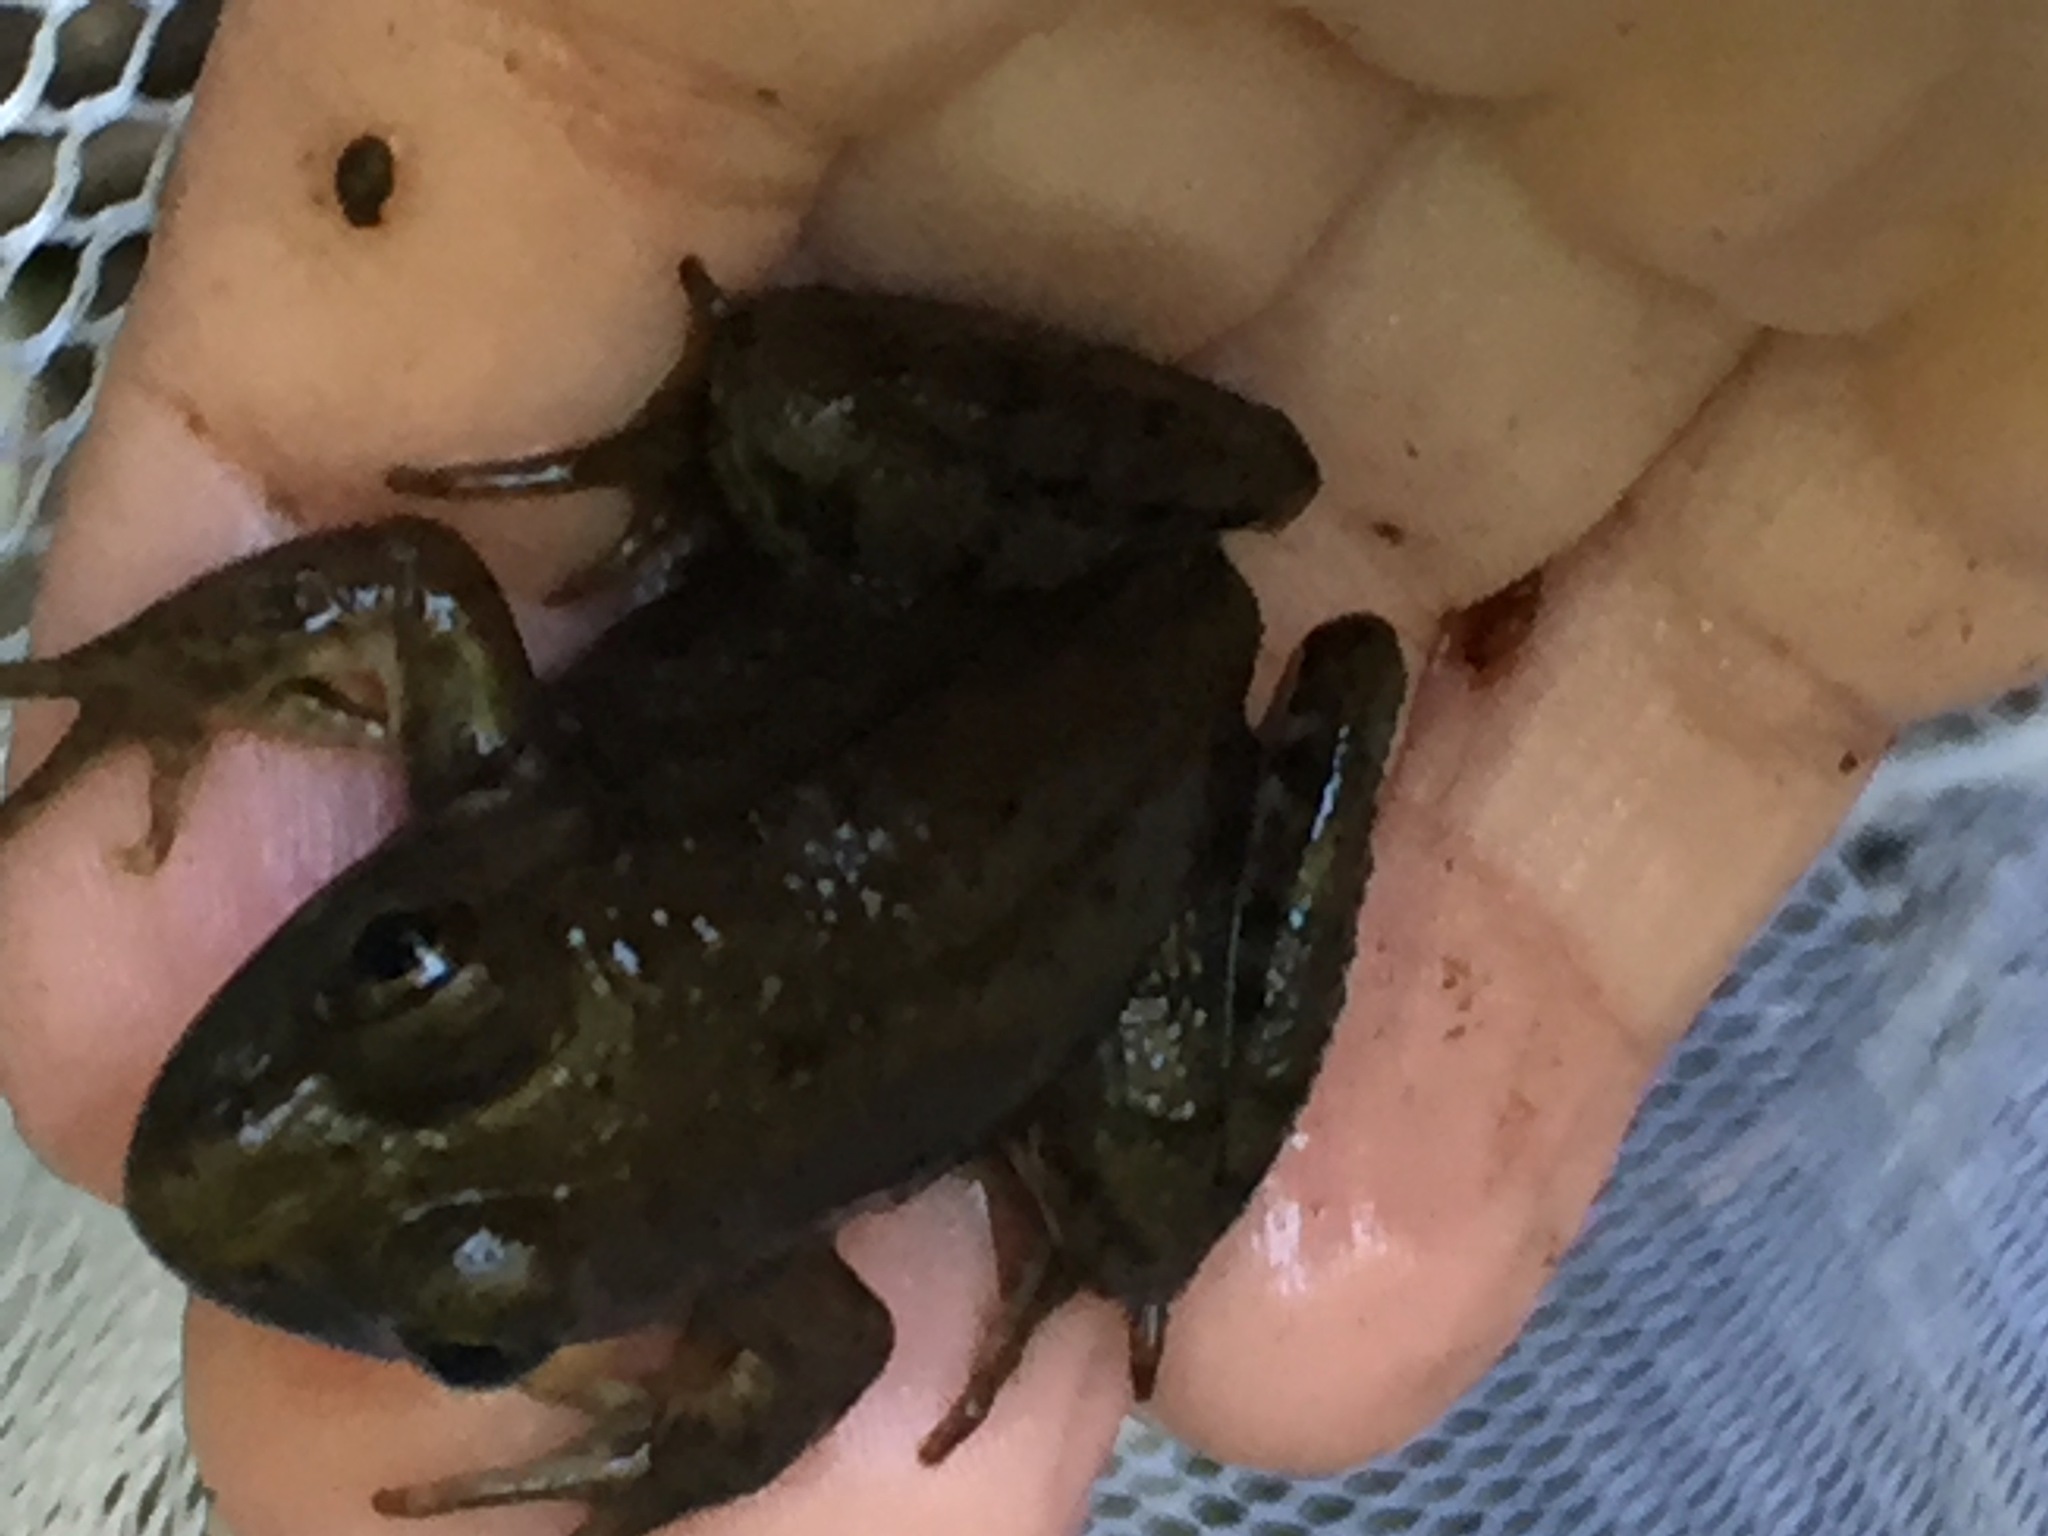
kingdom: Animalia
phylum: Chordata
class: Amphibia
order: Anura
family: Ranidae
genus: Lithobates
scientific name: Lithobates clamitans
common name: Green frog
